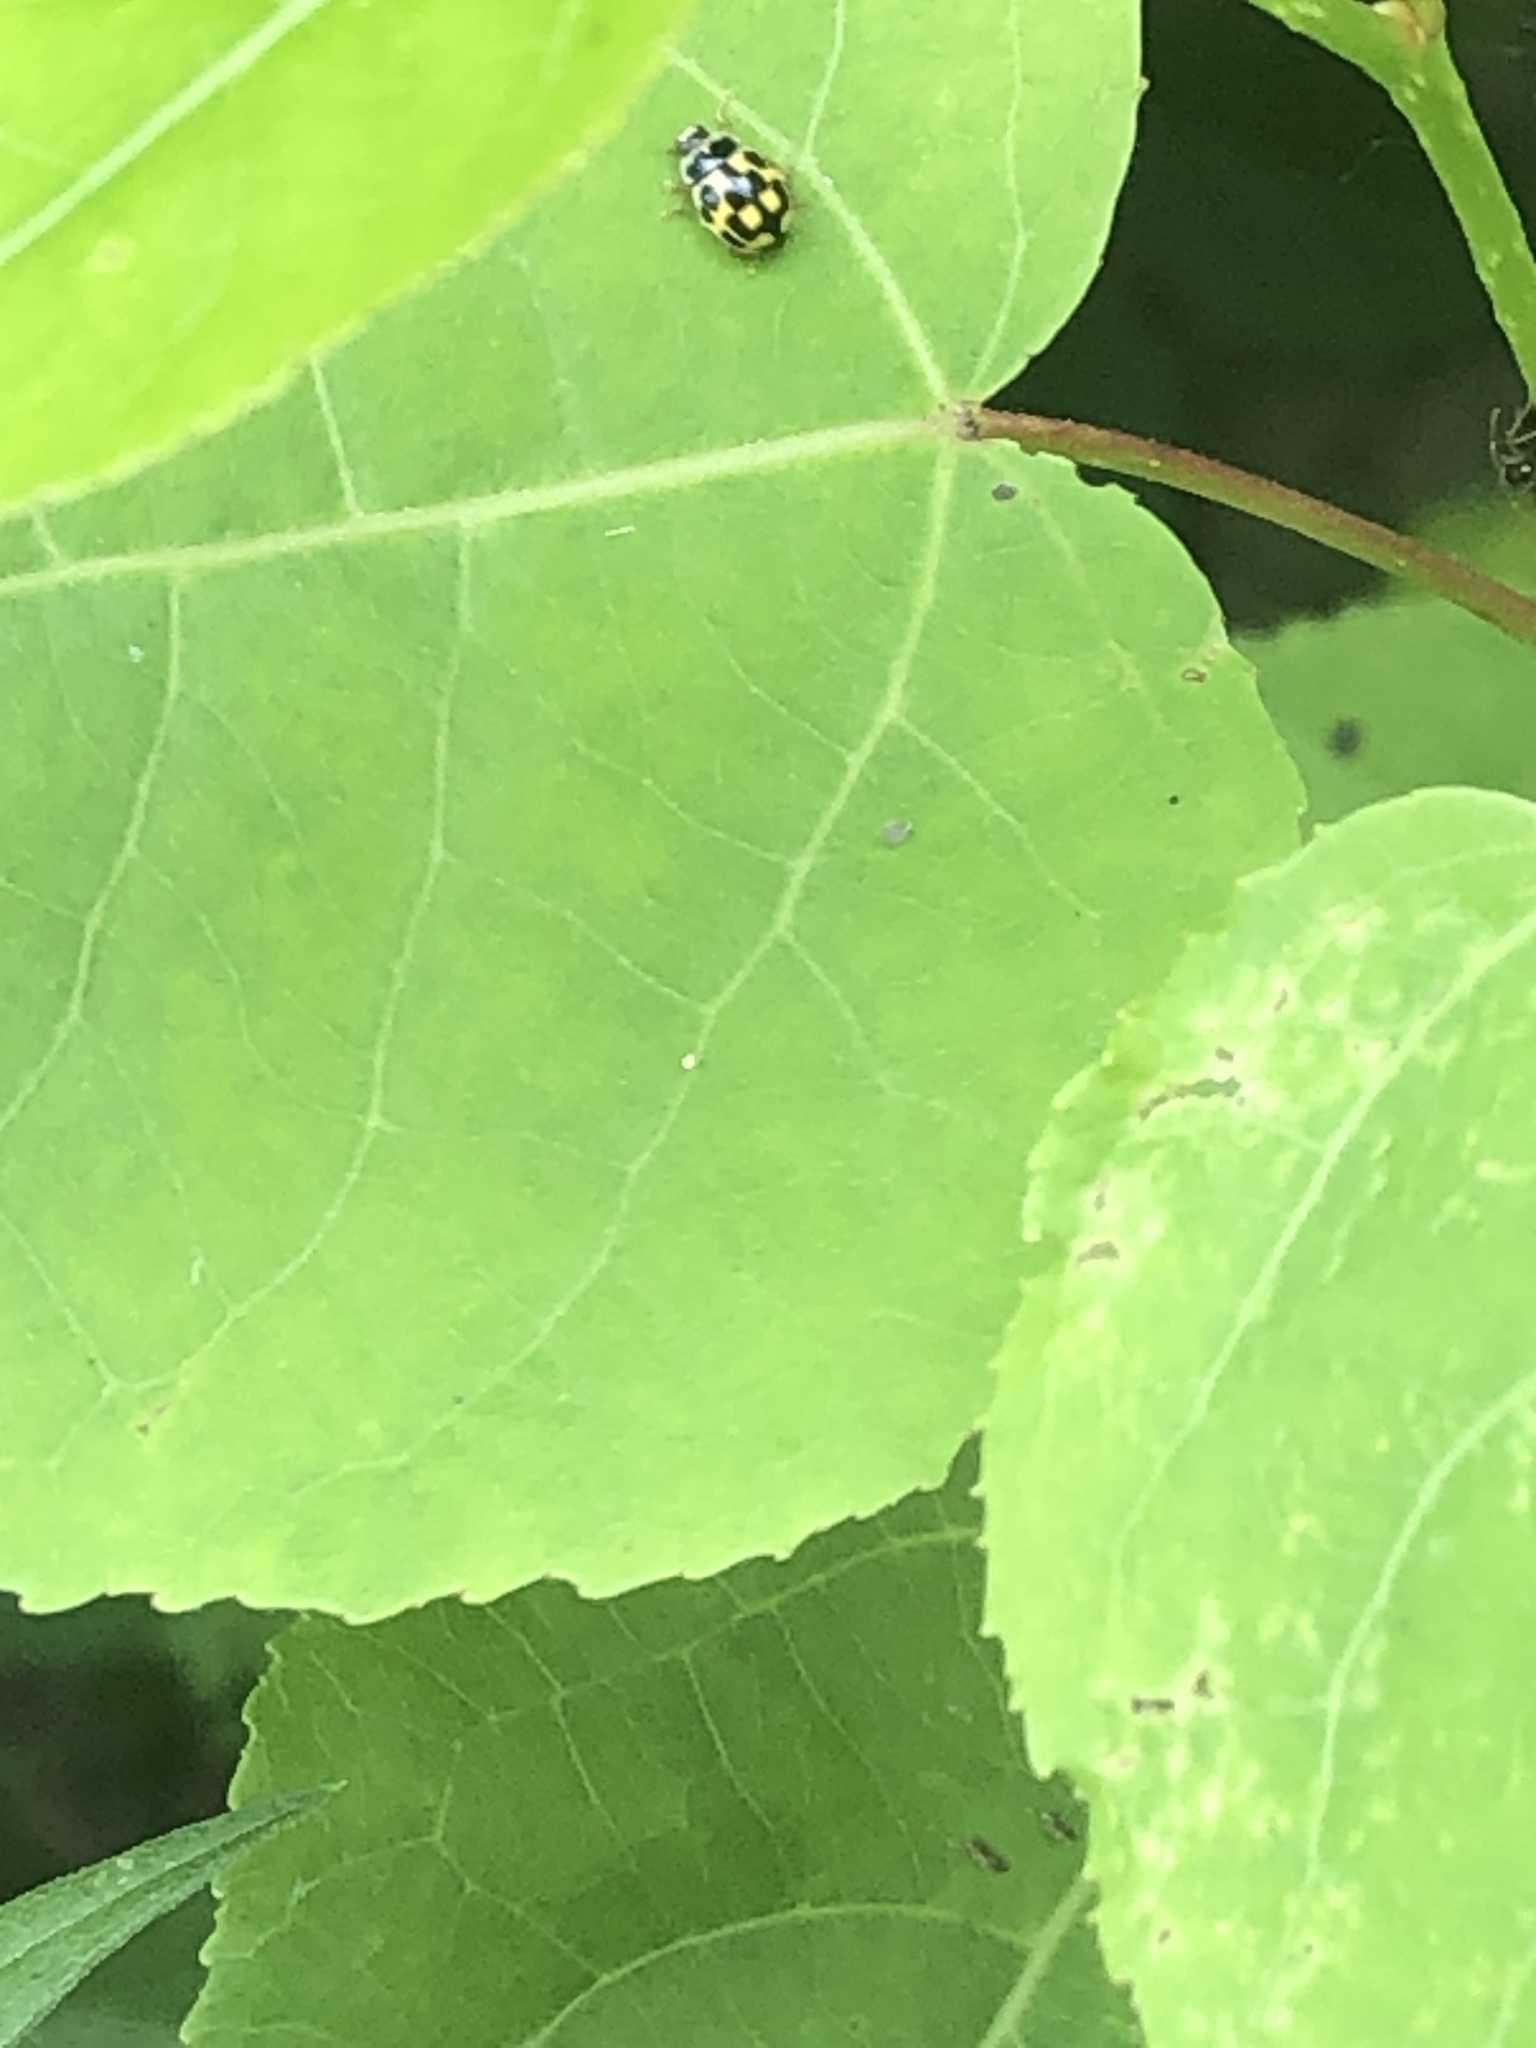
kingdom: Animalia
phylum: Arthropoda
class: Insecta
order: Coleoptera
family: Coccinellidae
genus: Propylaea
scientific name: Propylaea quatuordecimpunctata
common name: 14-spotted ladybird beetle
